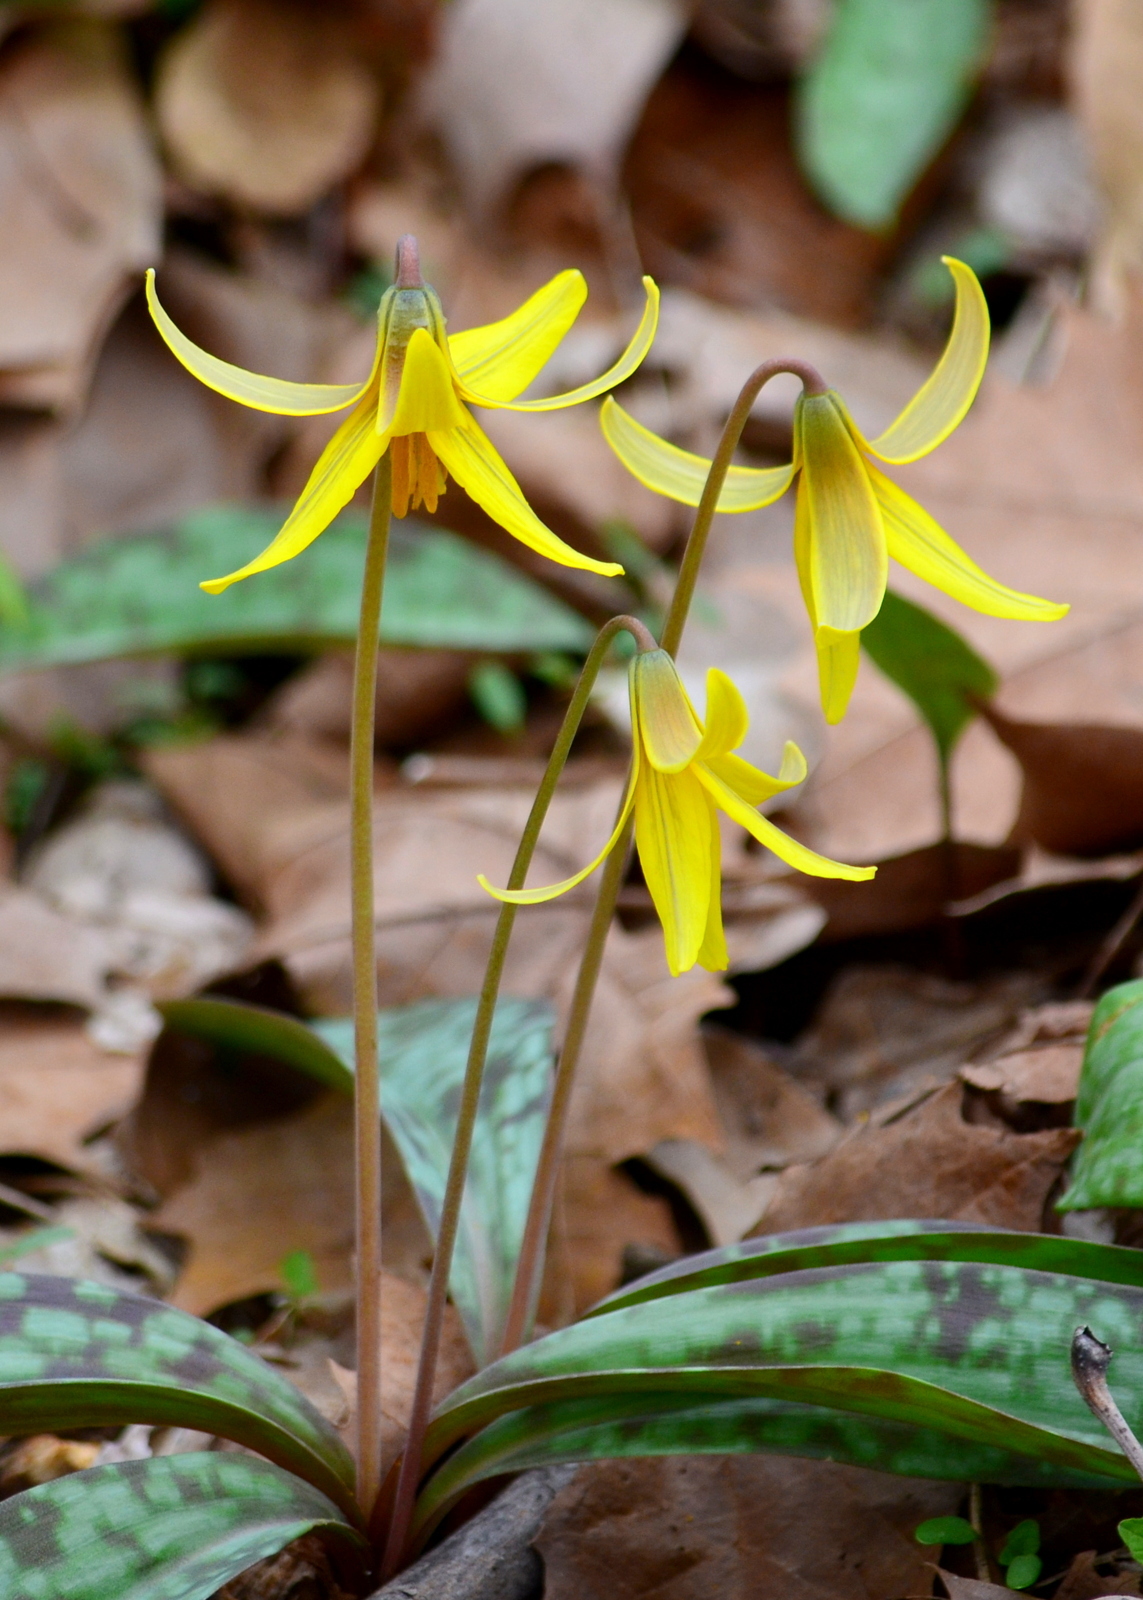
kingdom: Plantae
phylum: Tracheophyta
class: Liliopsida
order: Liliales
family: Liliaceae
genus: Erythronium
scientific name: Erythronium americanum
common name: Yellow adder's-tongue
